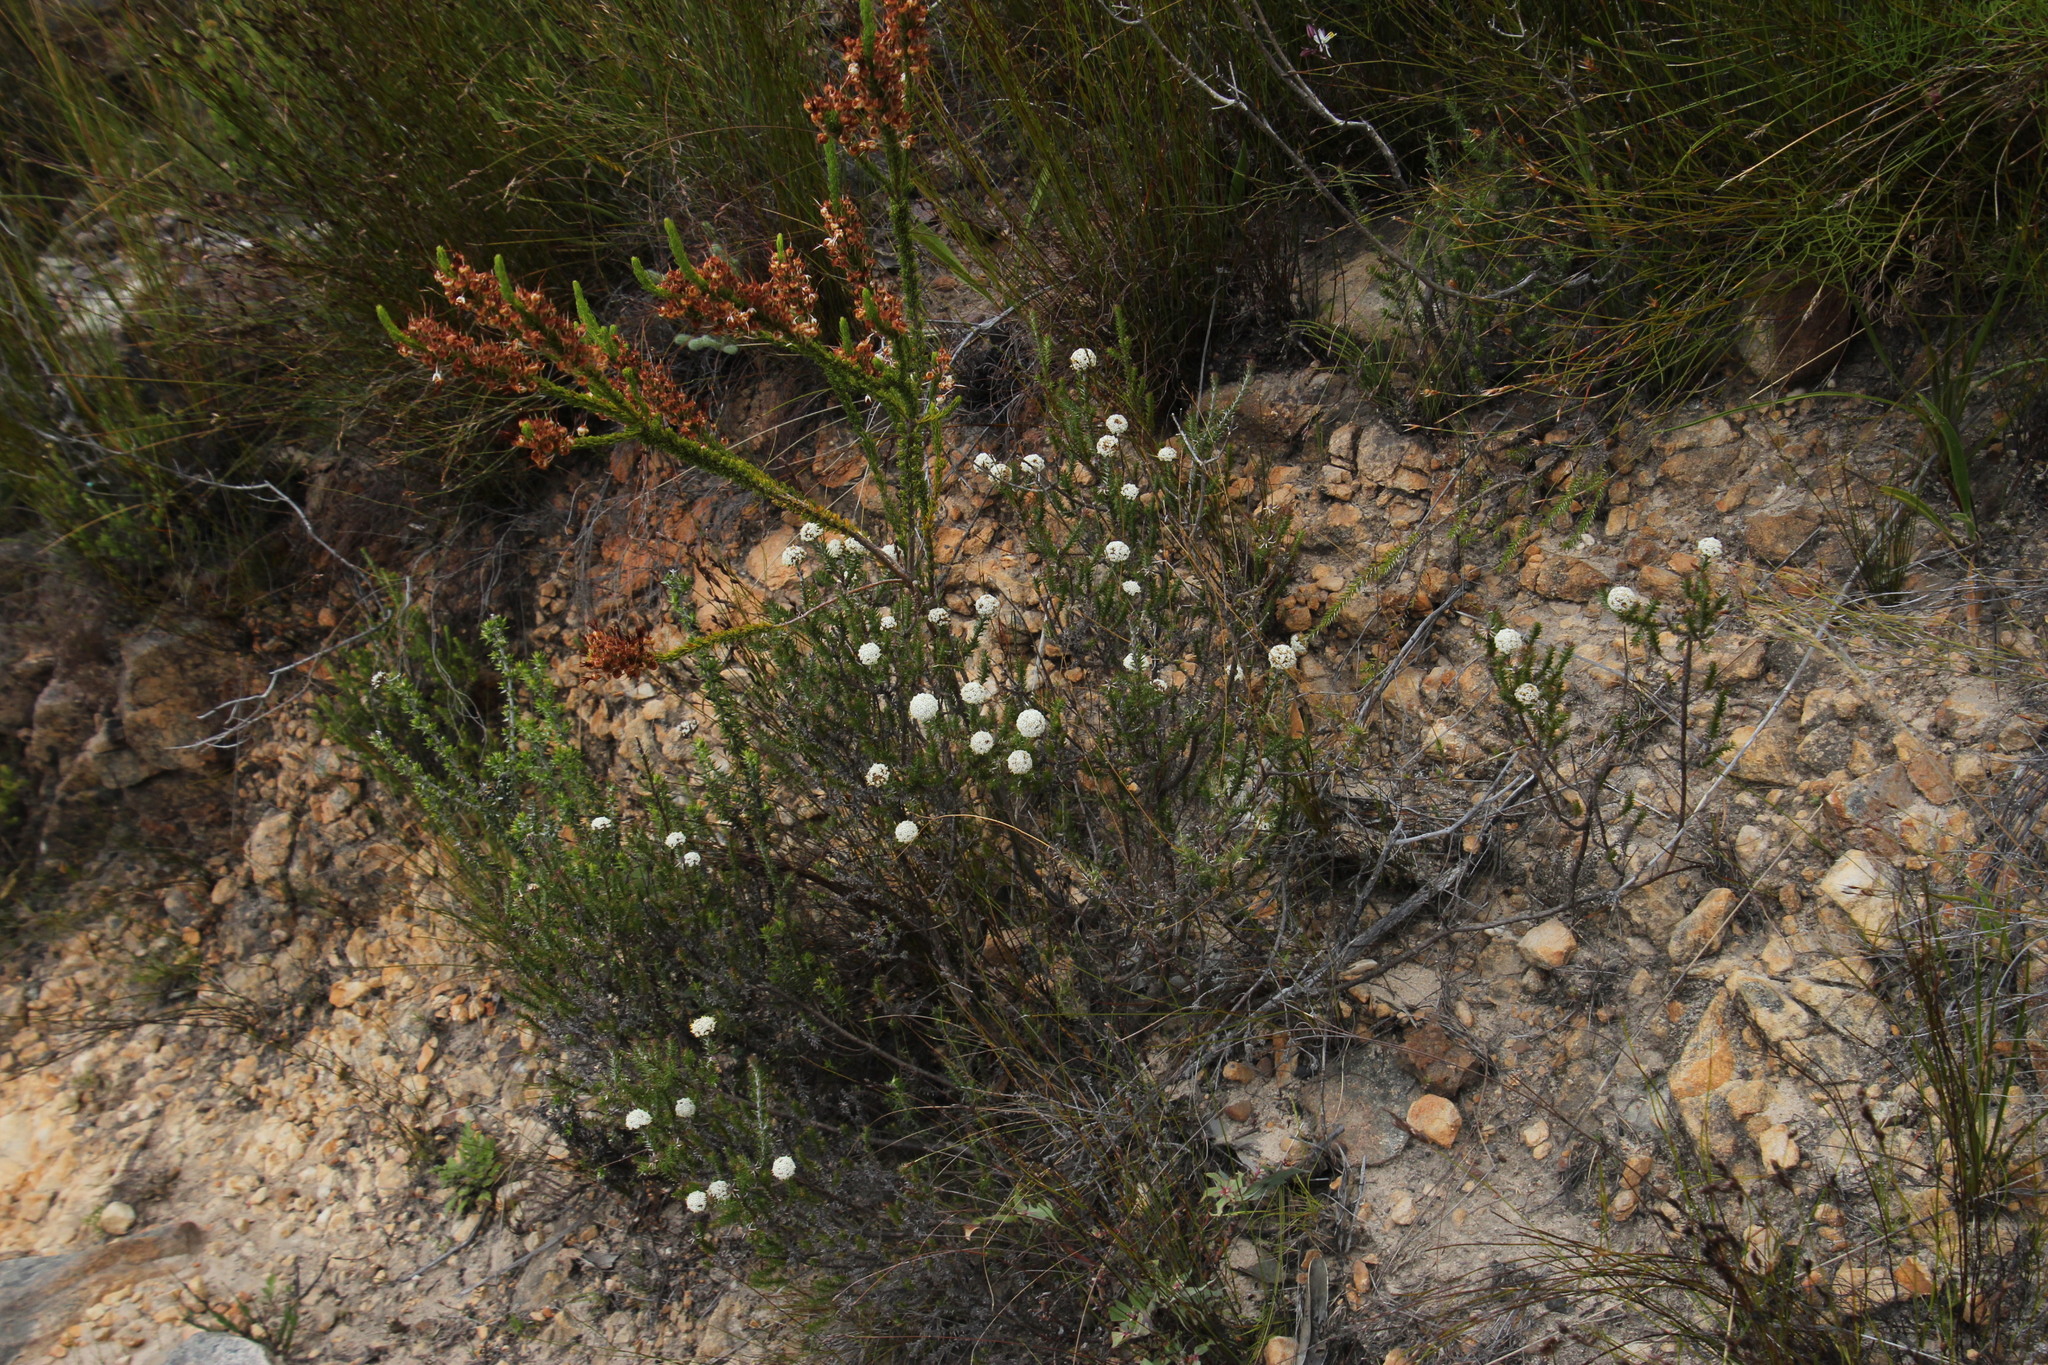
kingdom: Plantae
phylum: Tracheophyta
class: Magnoliopsida
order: Asterales
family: Asteraceae
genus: Stoebe
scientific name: Stoebe aethiopica
